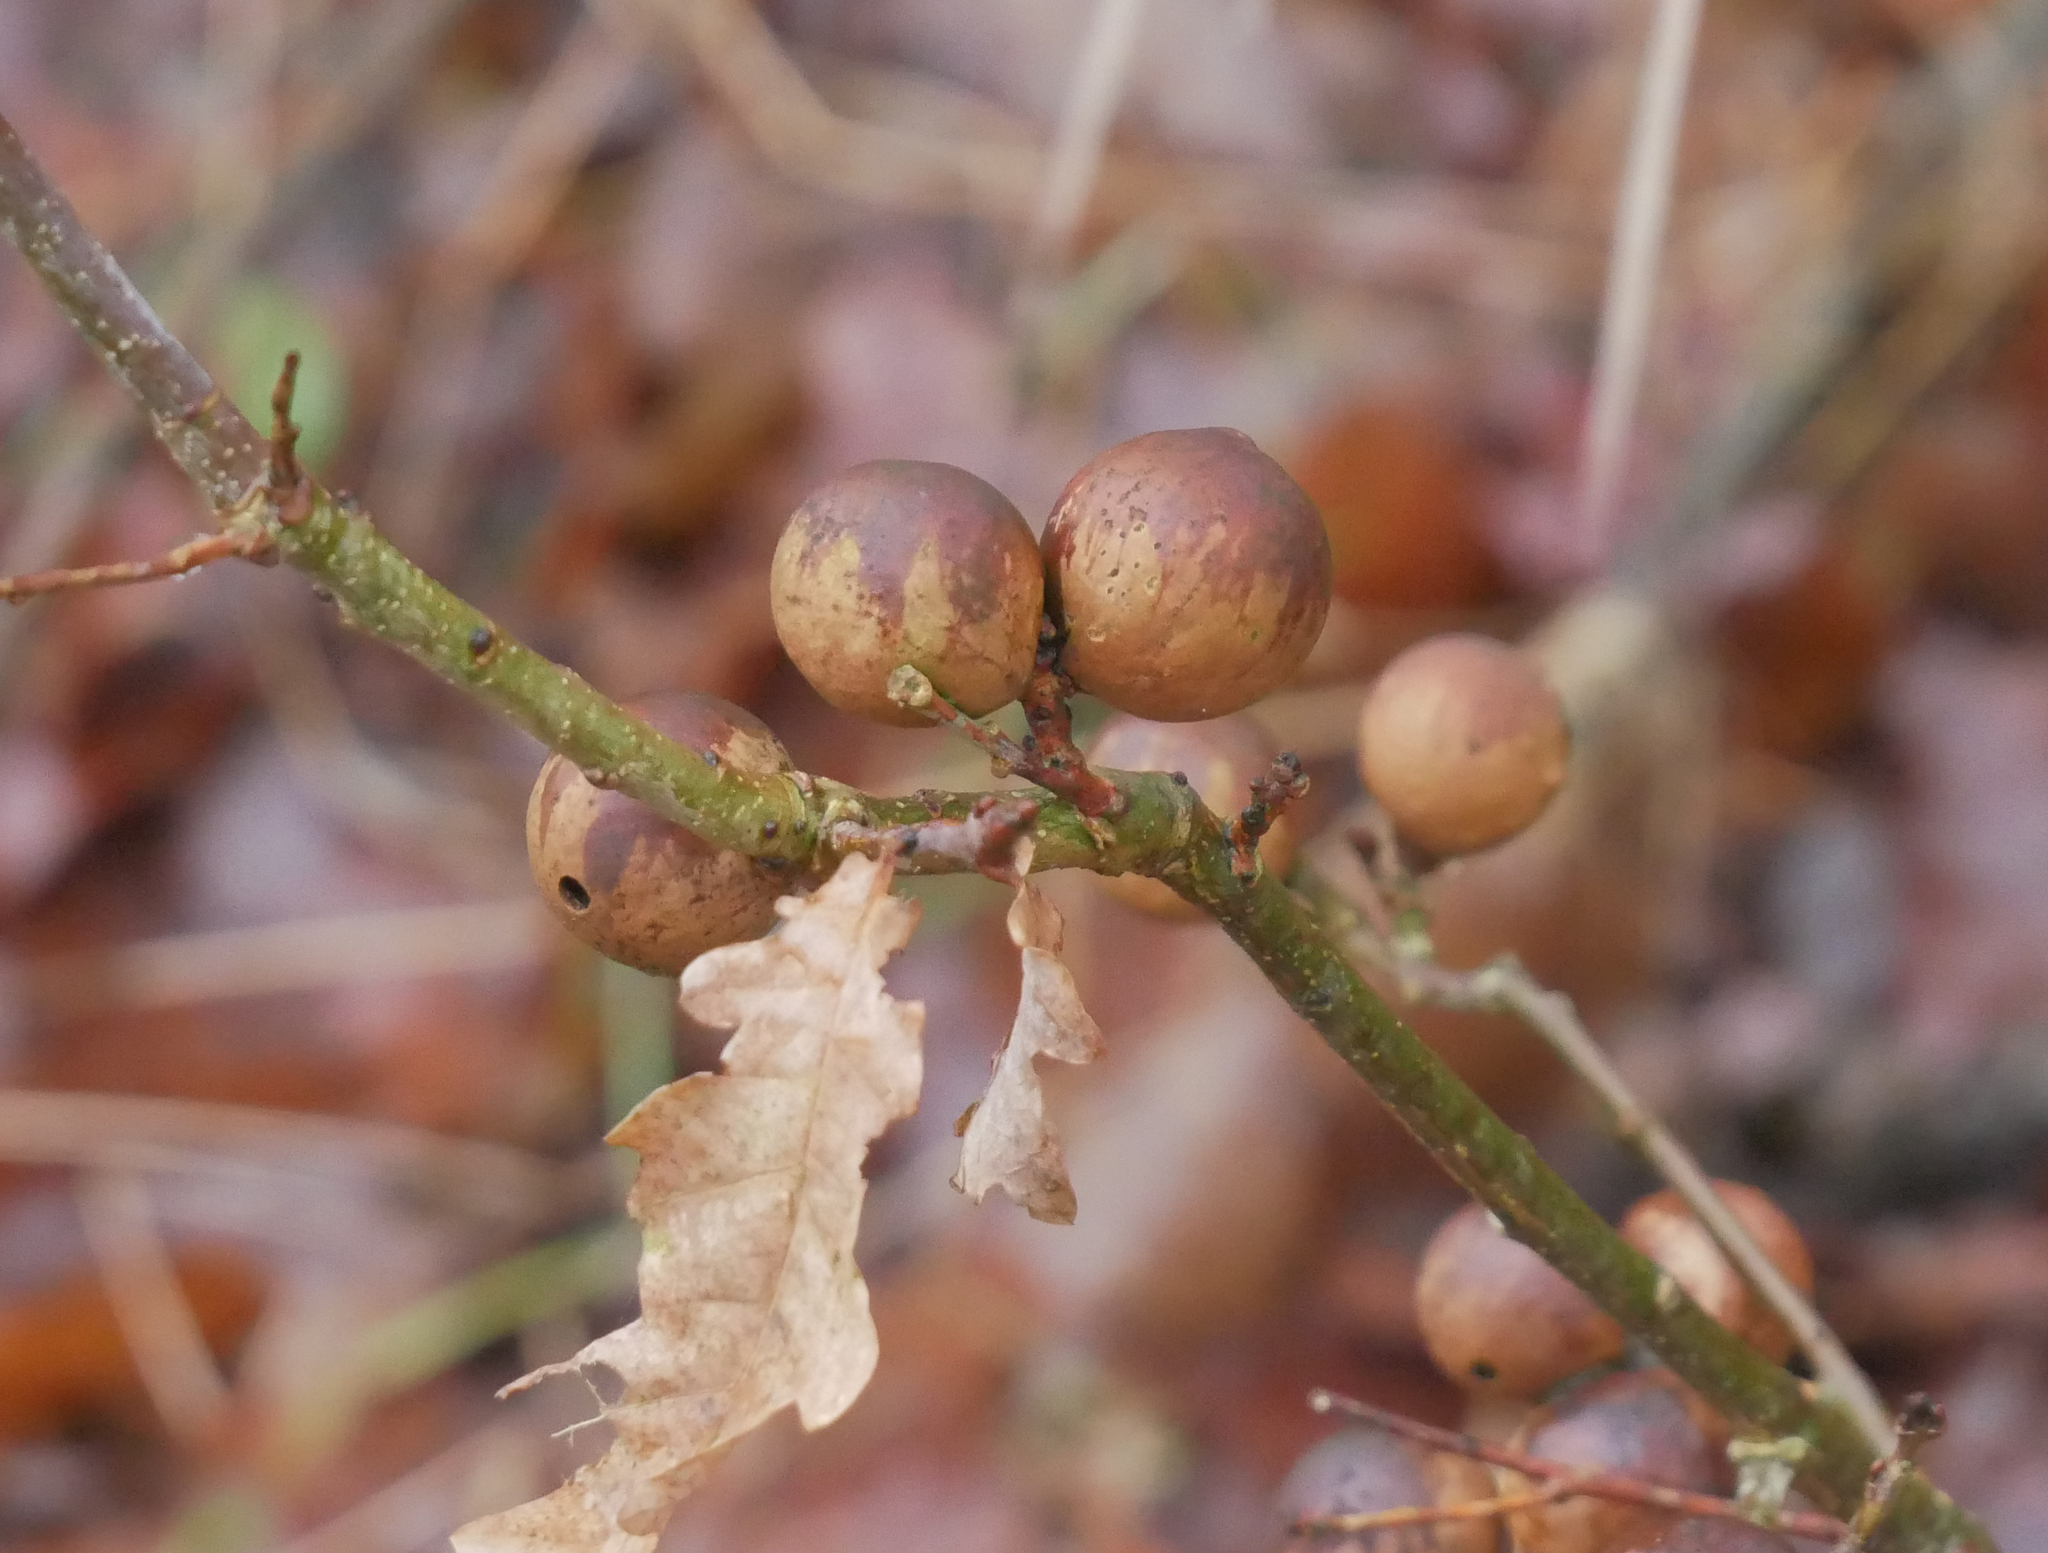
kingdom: Animalia
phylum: Arthropoda
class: Insecta
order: Hymenoptera
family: Cynipidae
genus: Andricus
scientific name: Andricus kollari
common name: Marble gall
